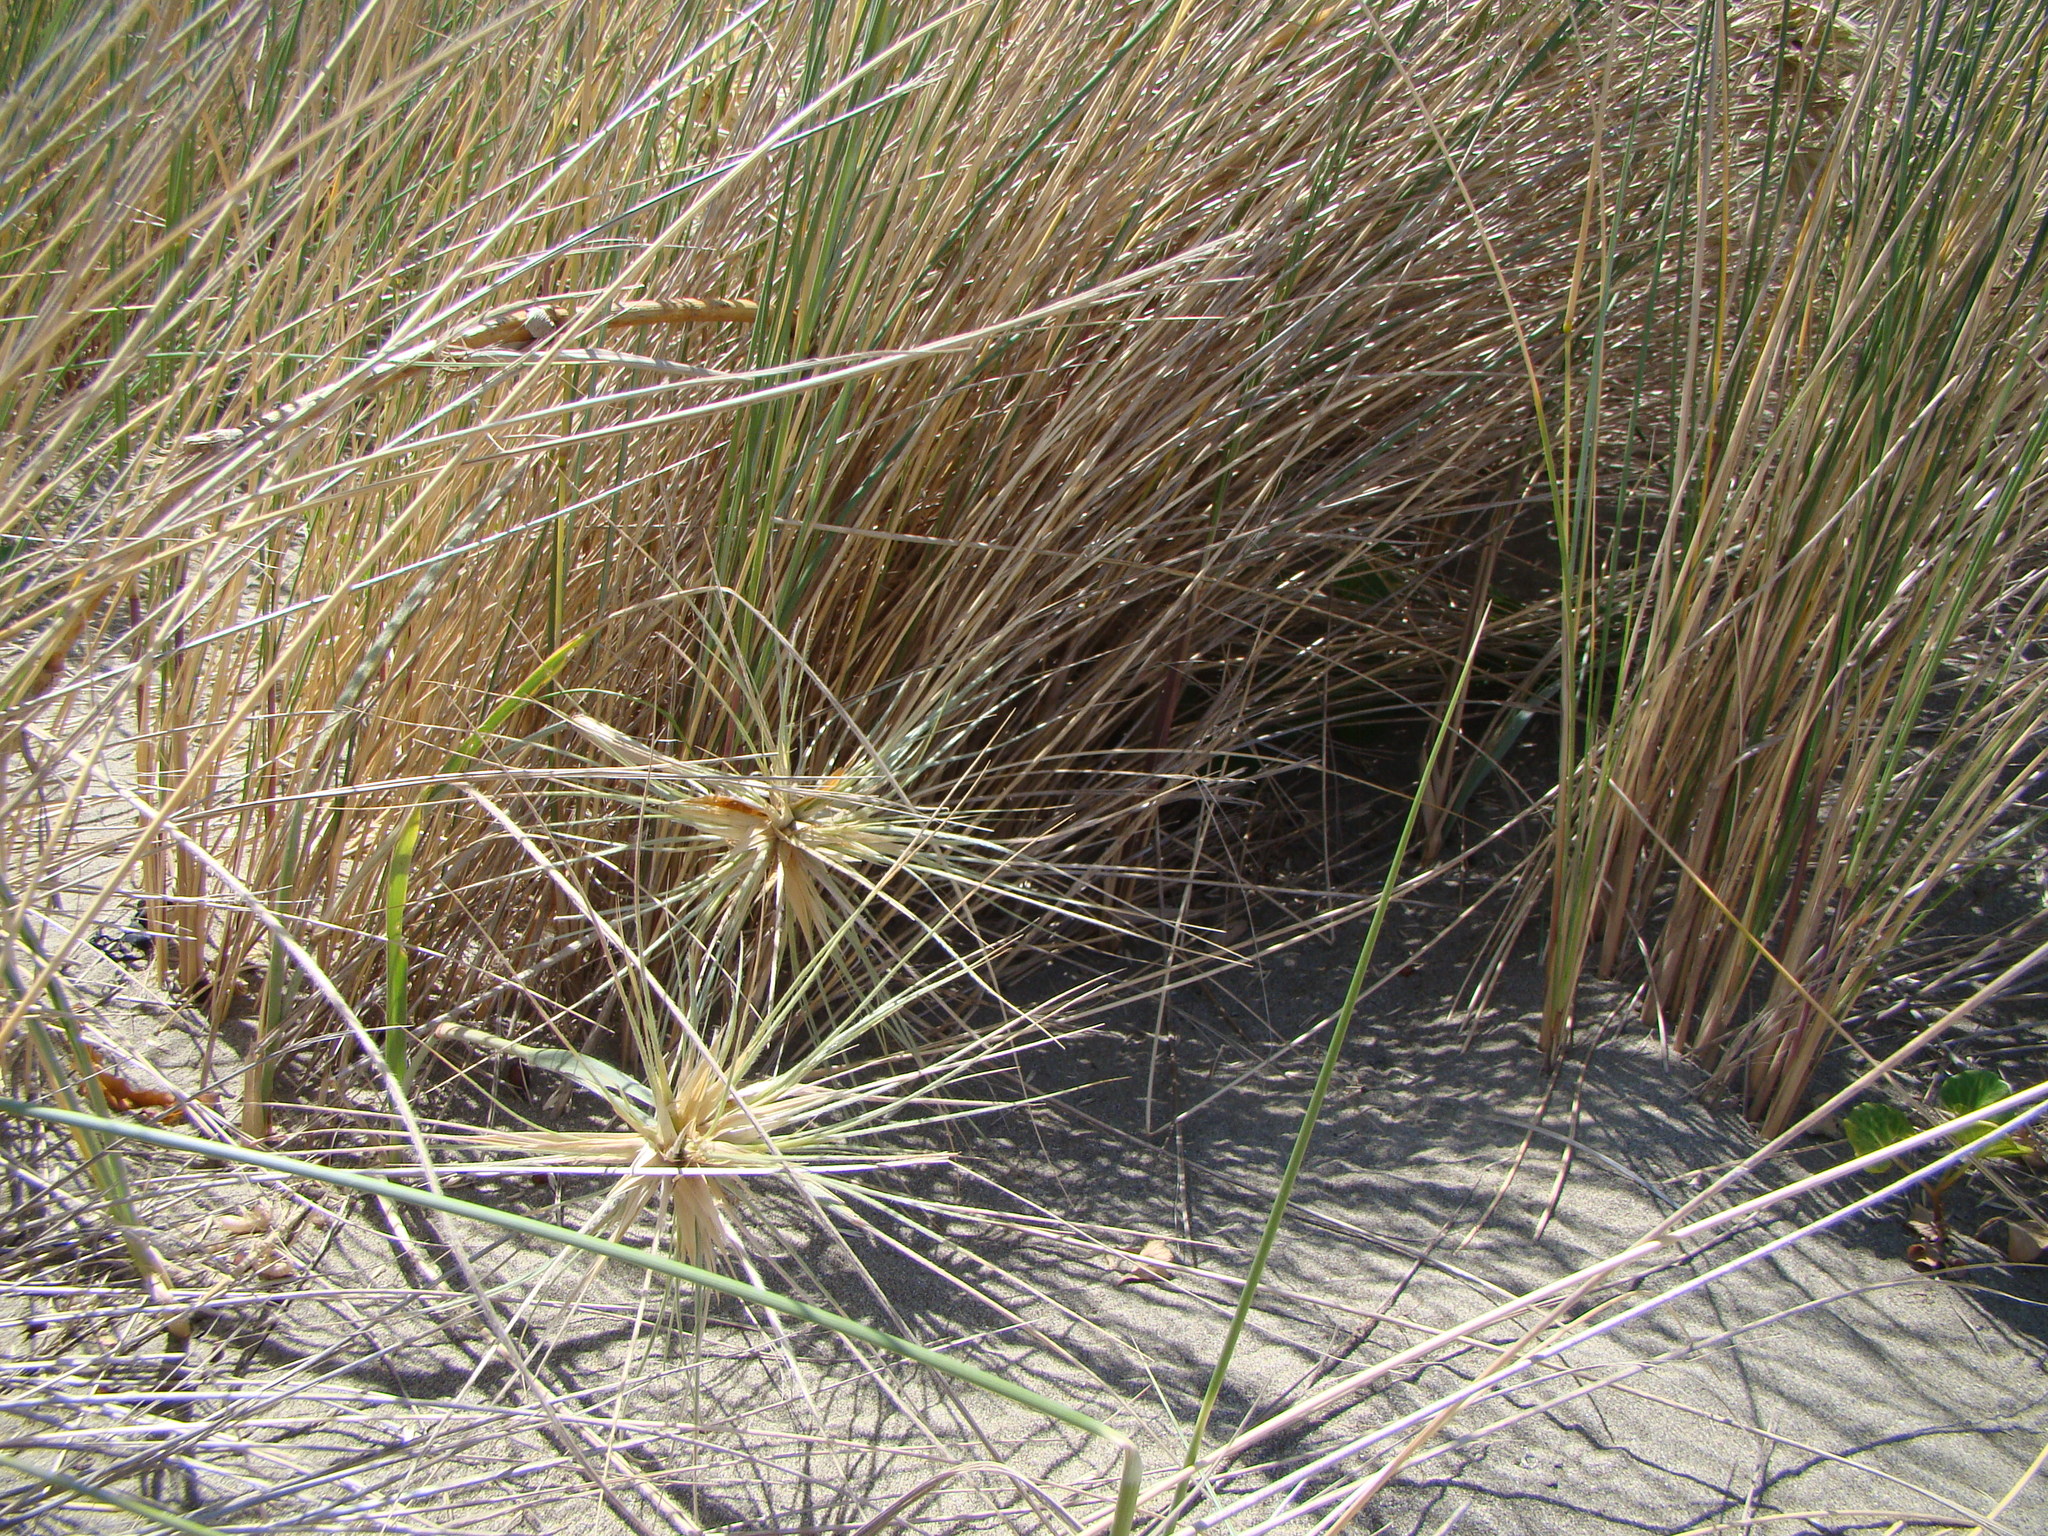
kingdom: Plantae
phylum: Tracheophyta
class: Liliopsida
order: Poales
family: Poaceae
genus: Spinifex
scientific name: Spinifex sericeus
